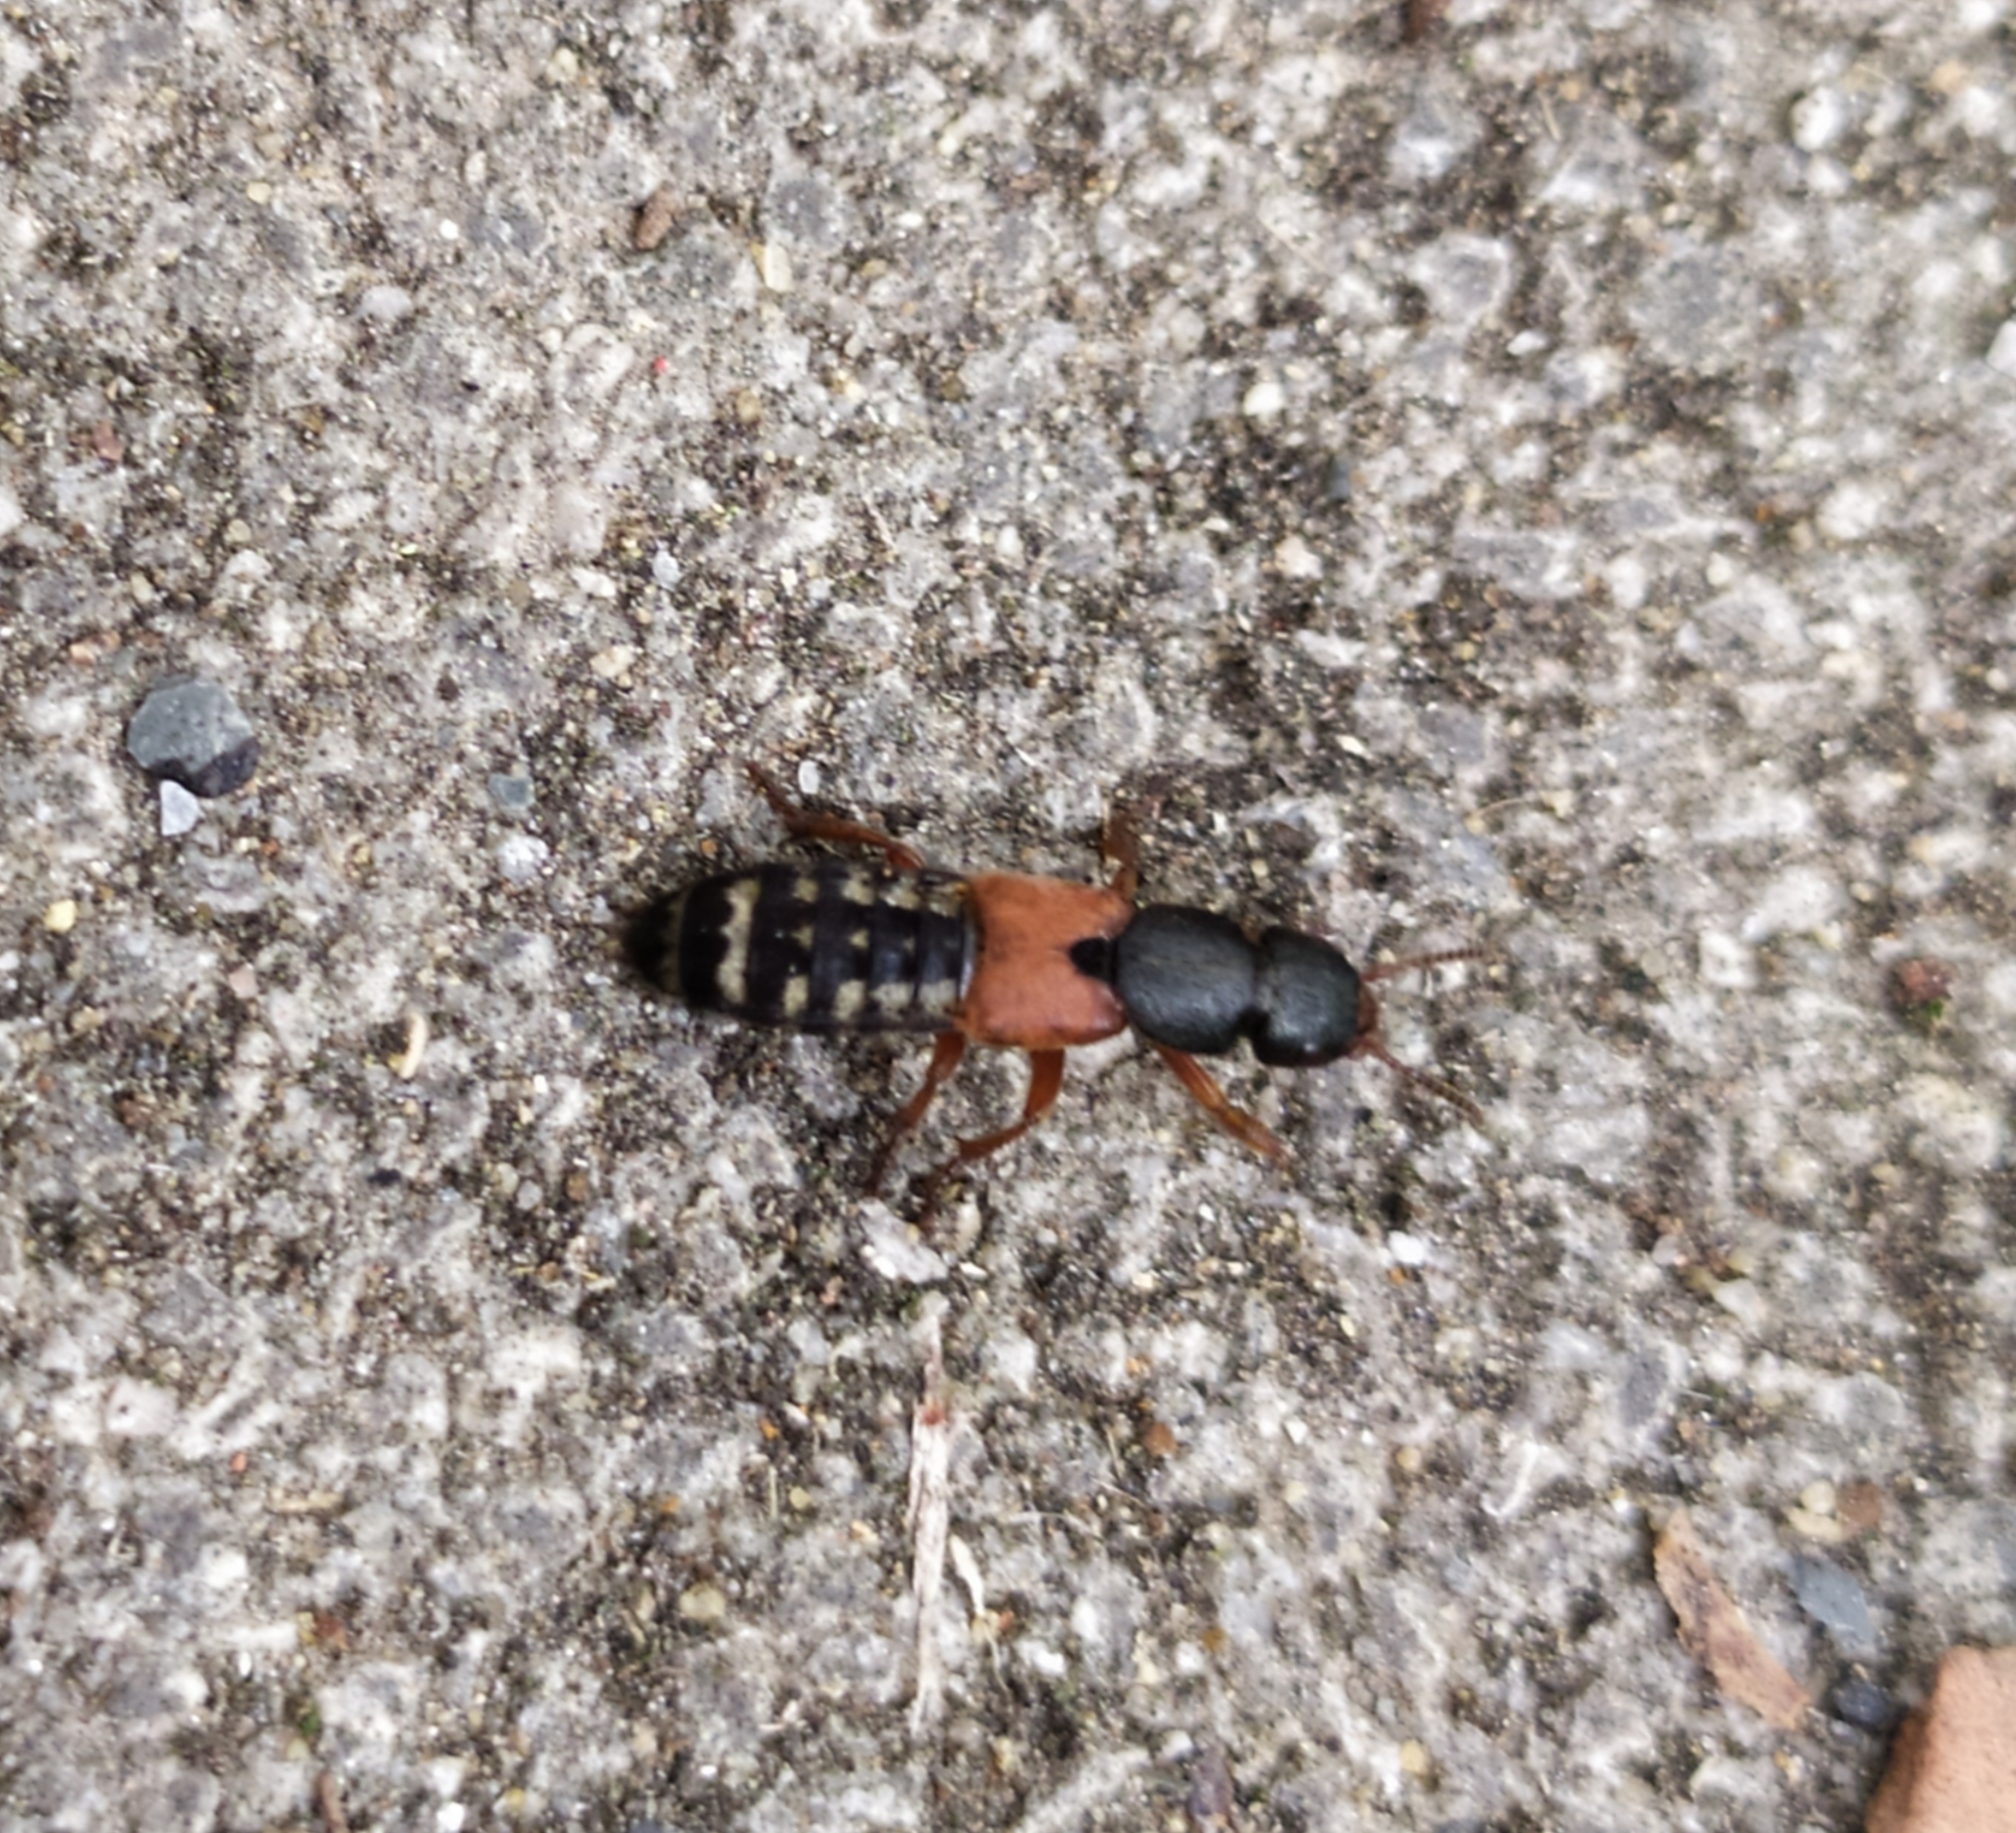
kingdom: Animalia
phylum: Arthropoda
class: Insecta
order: Coleoptera
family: Staphylinidae
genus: Platydracus
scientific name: Platydracus stercorarius
